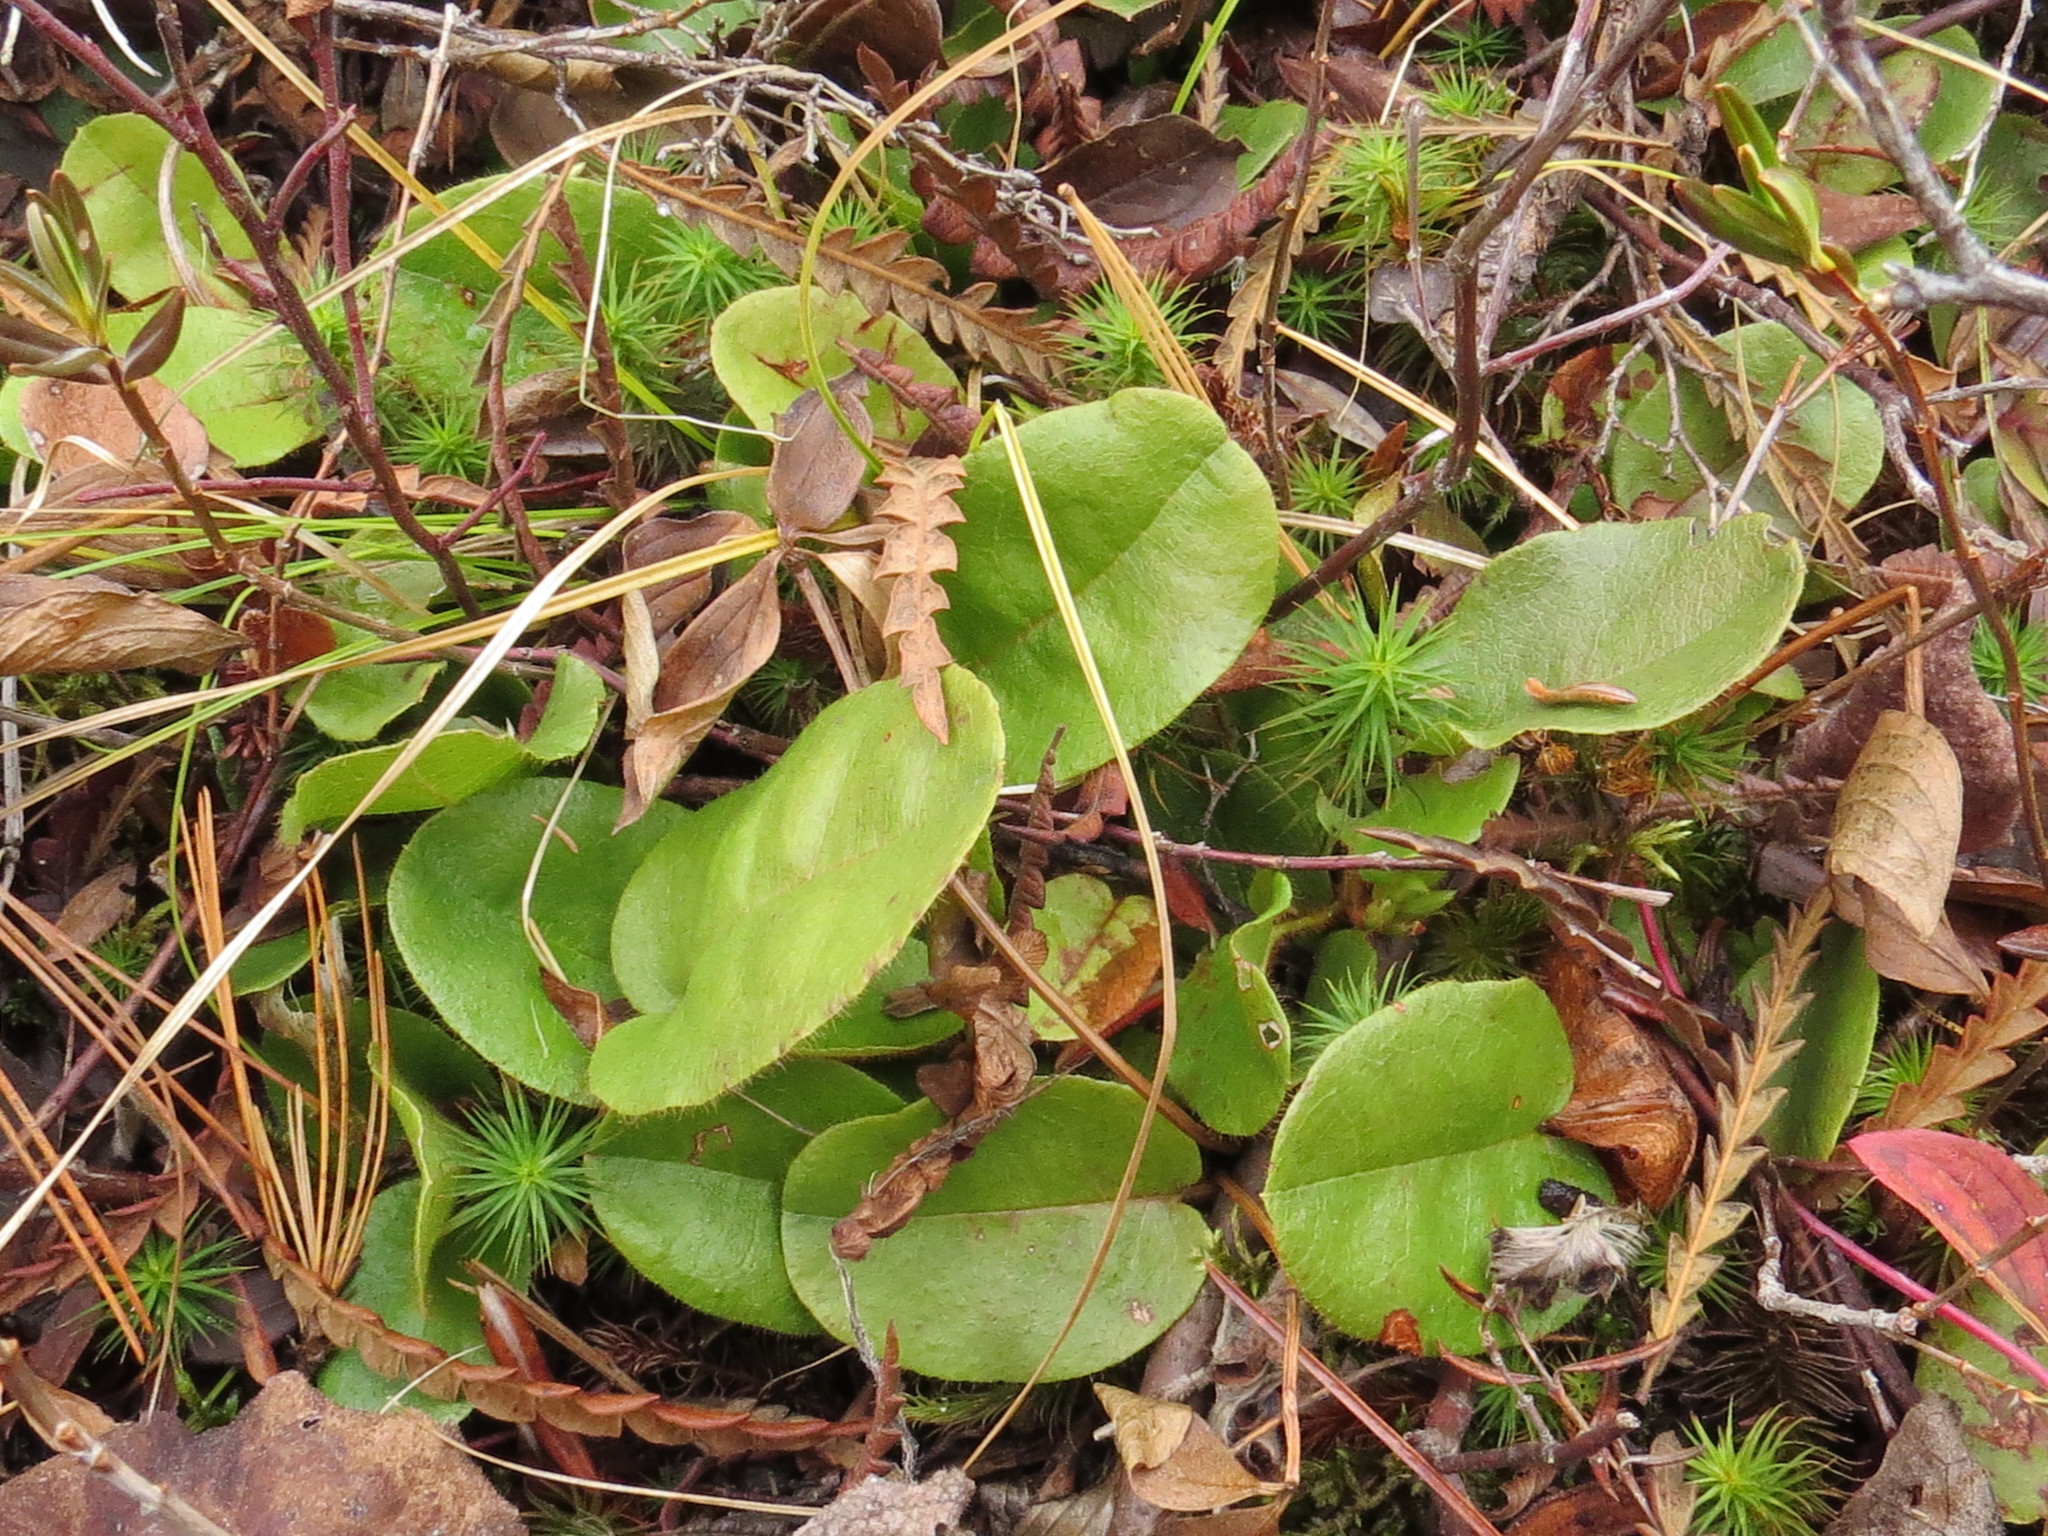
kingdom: Plantae
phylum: Tracheophyta
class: Magnoliopsida
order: Ericales
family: Ericaceae
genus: Epigaea
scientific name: Epigaea repens
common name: Gravelroot
